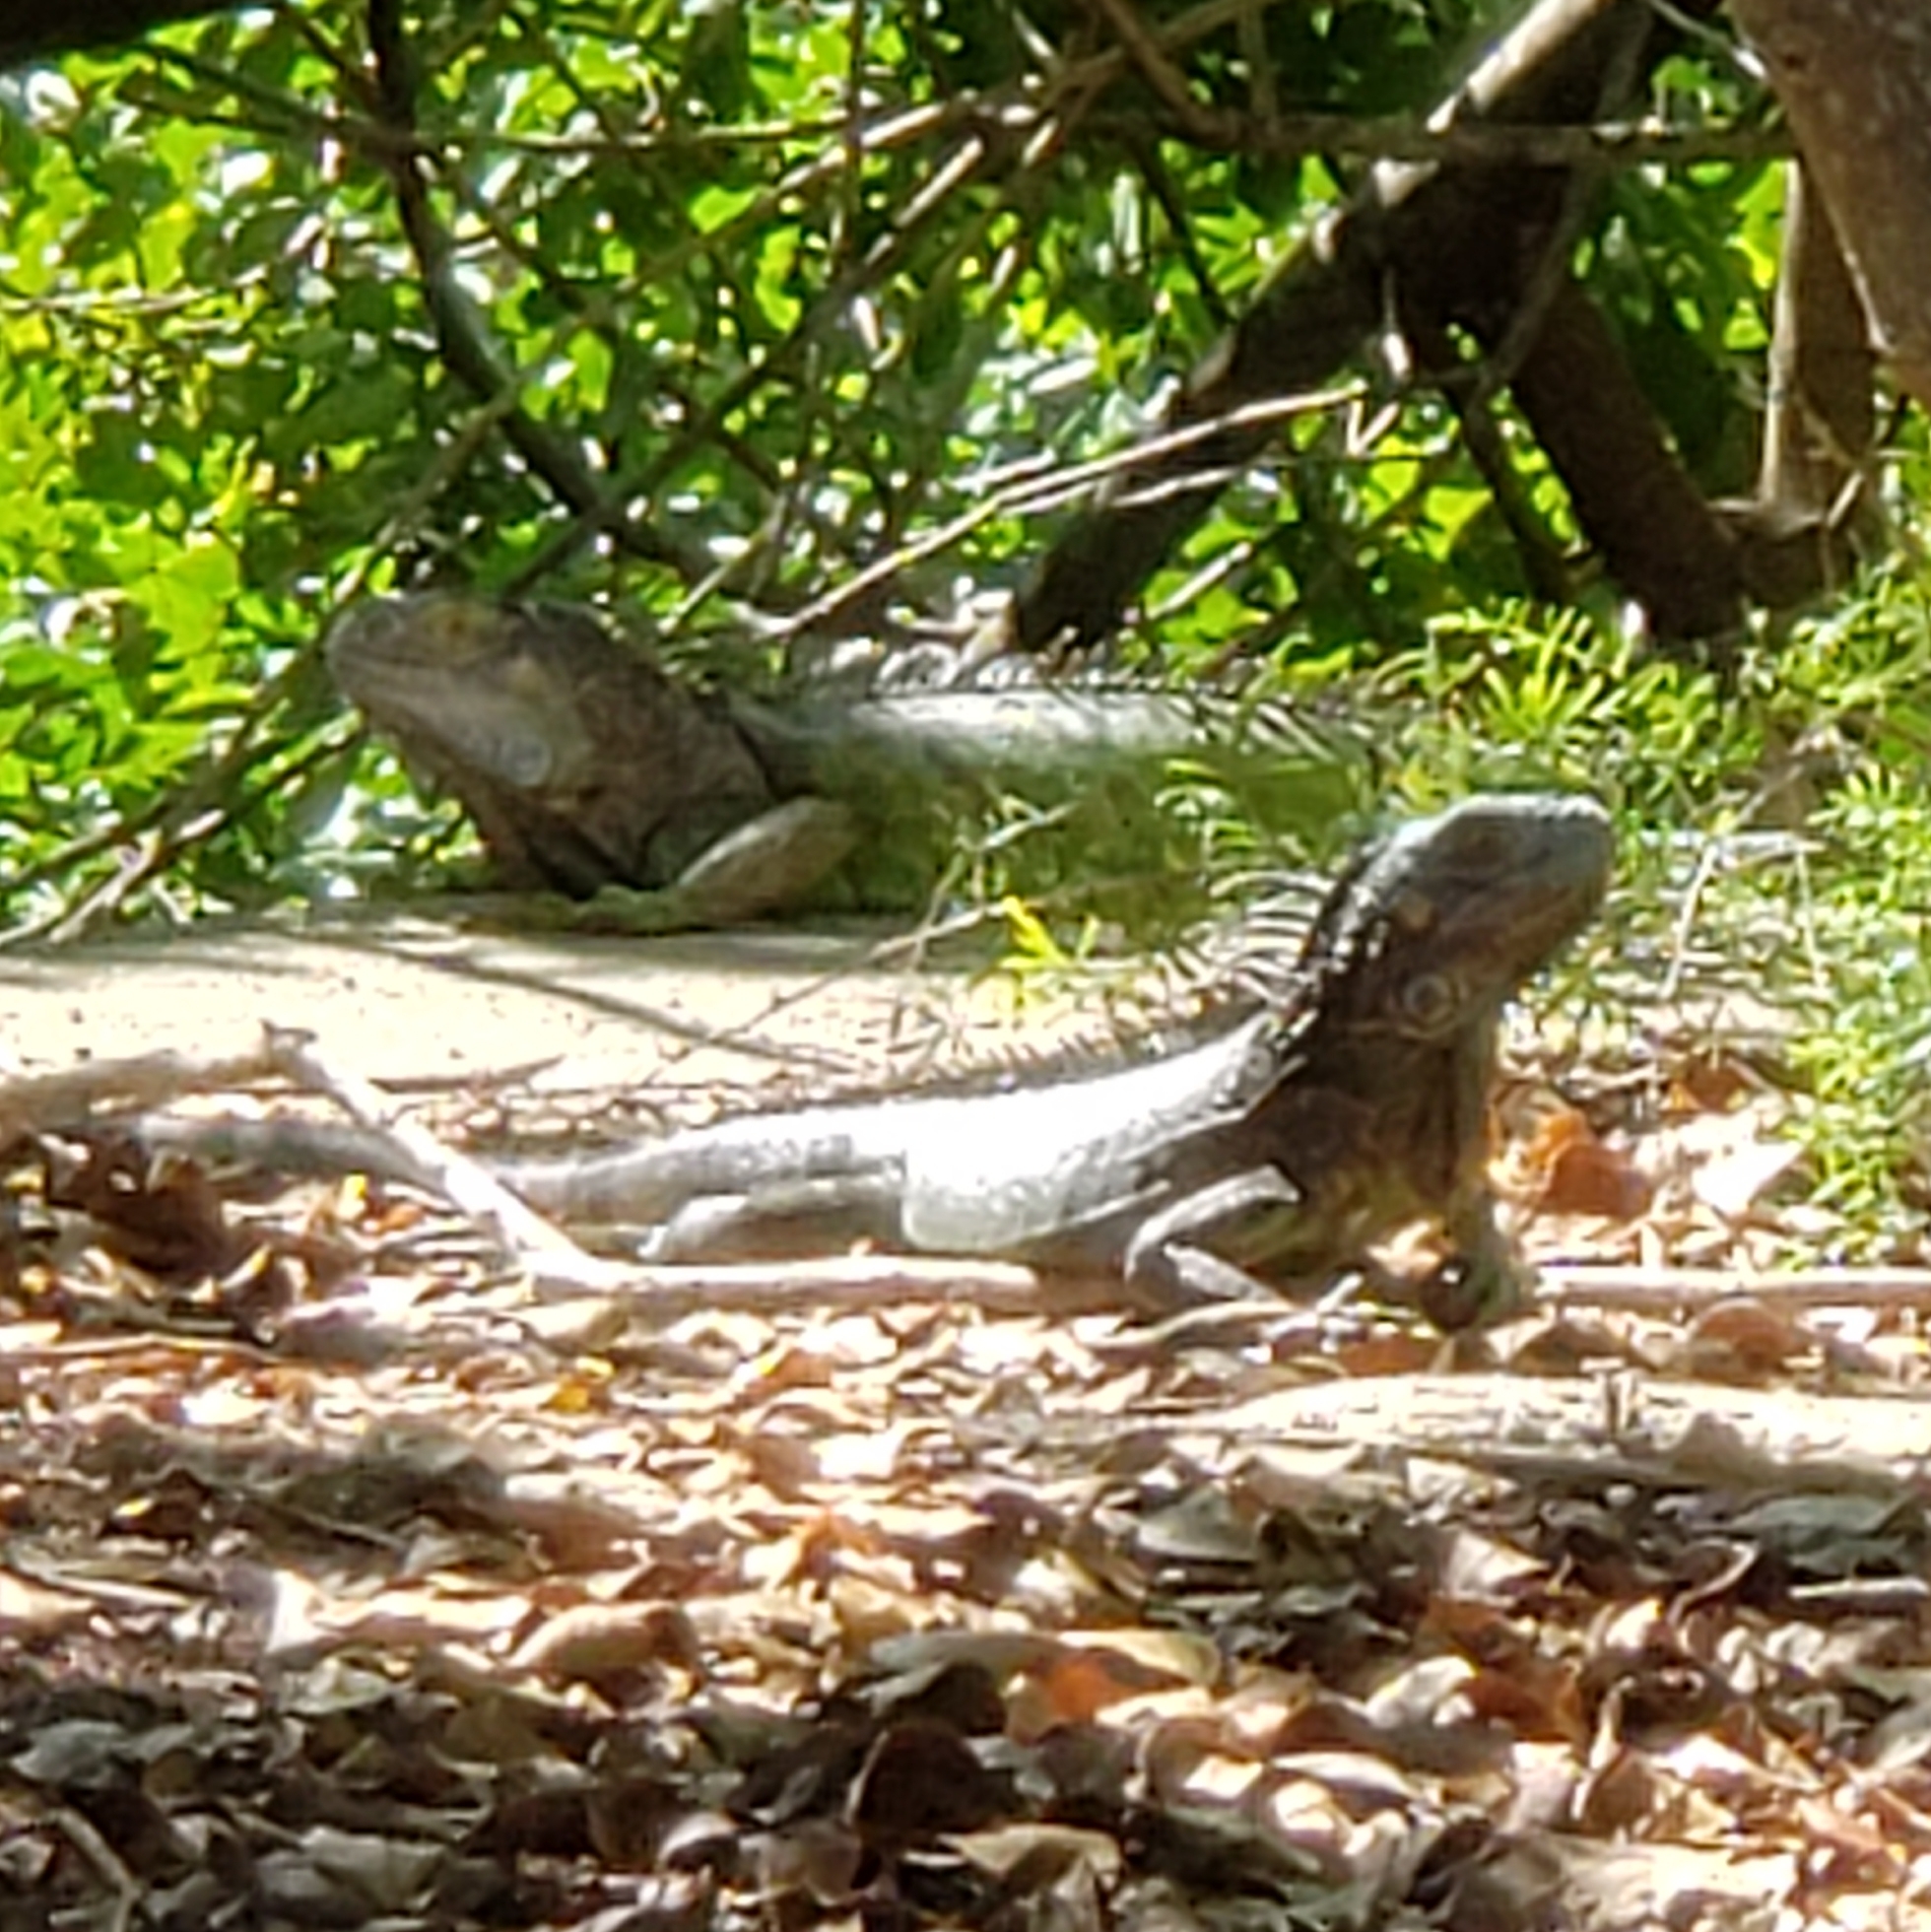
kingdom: Animalia
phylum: Chordata
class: Squamata
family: Iguanidae
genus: Iguana
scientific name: Iguana iguana
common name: Green iguana
